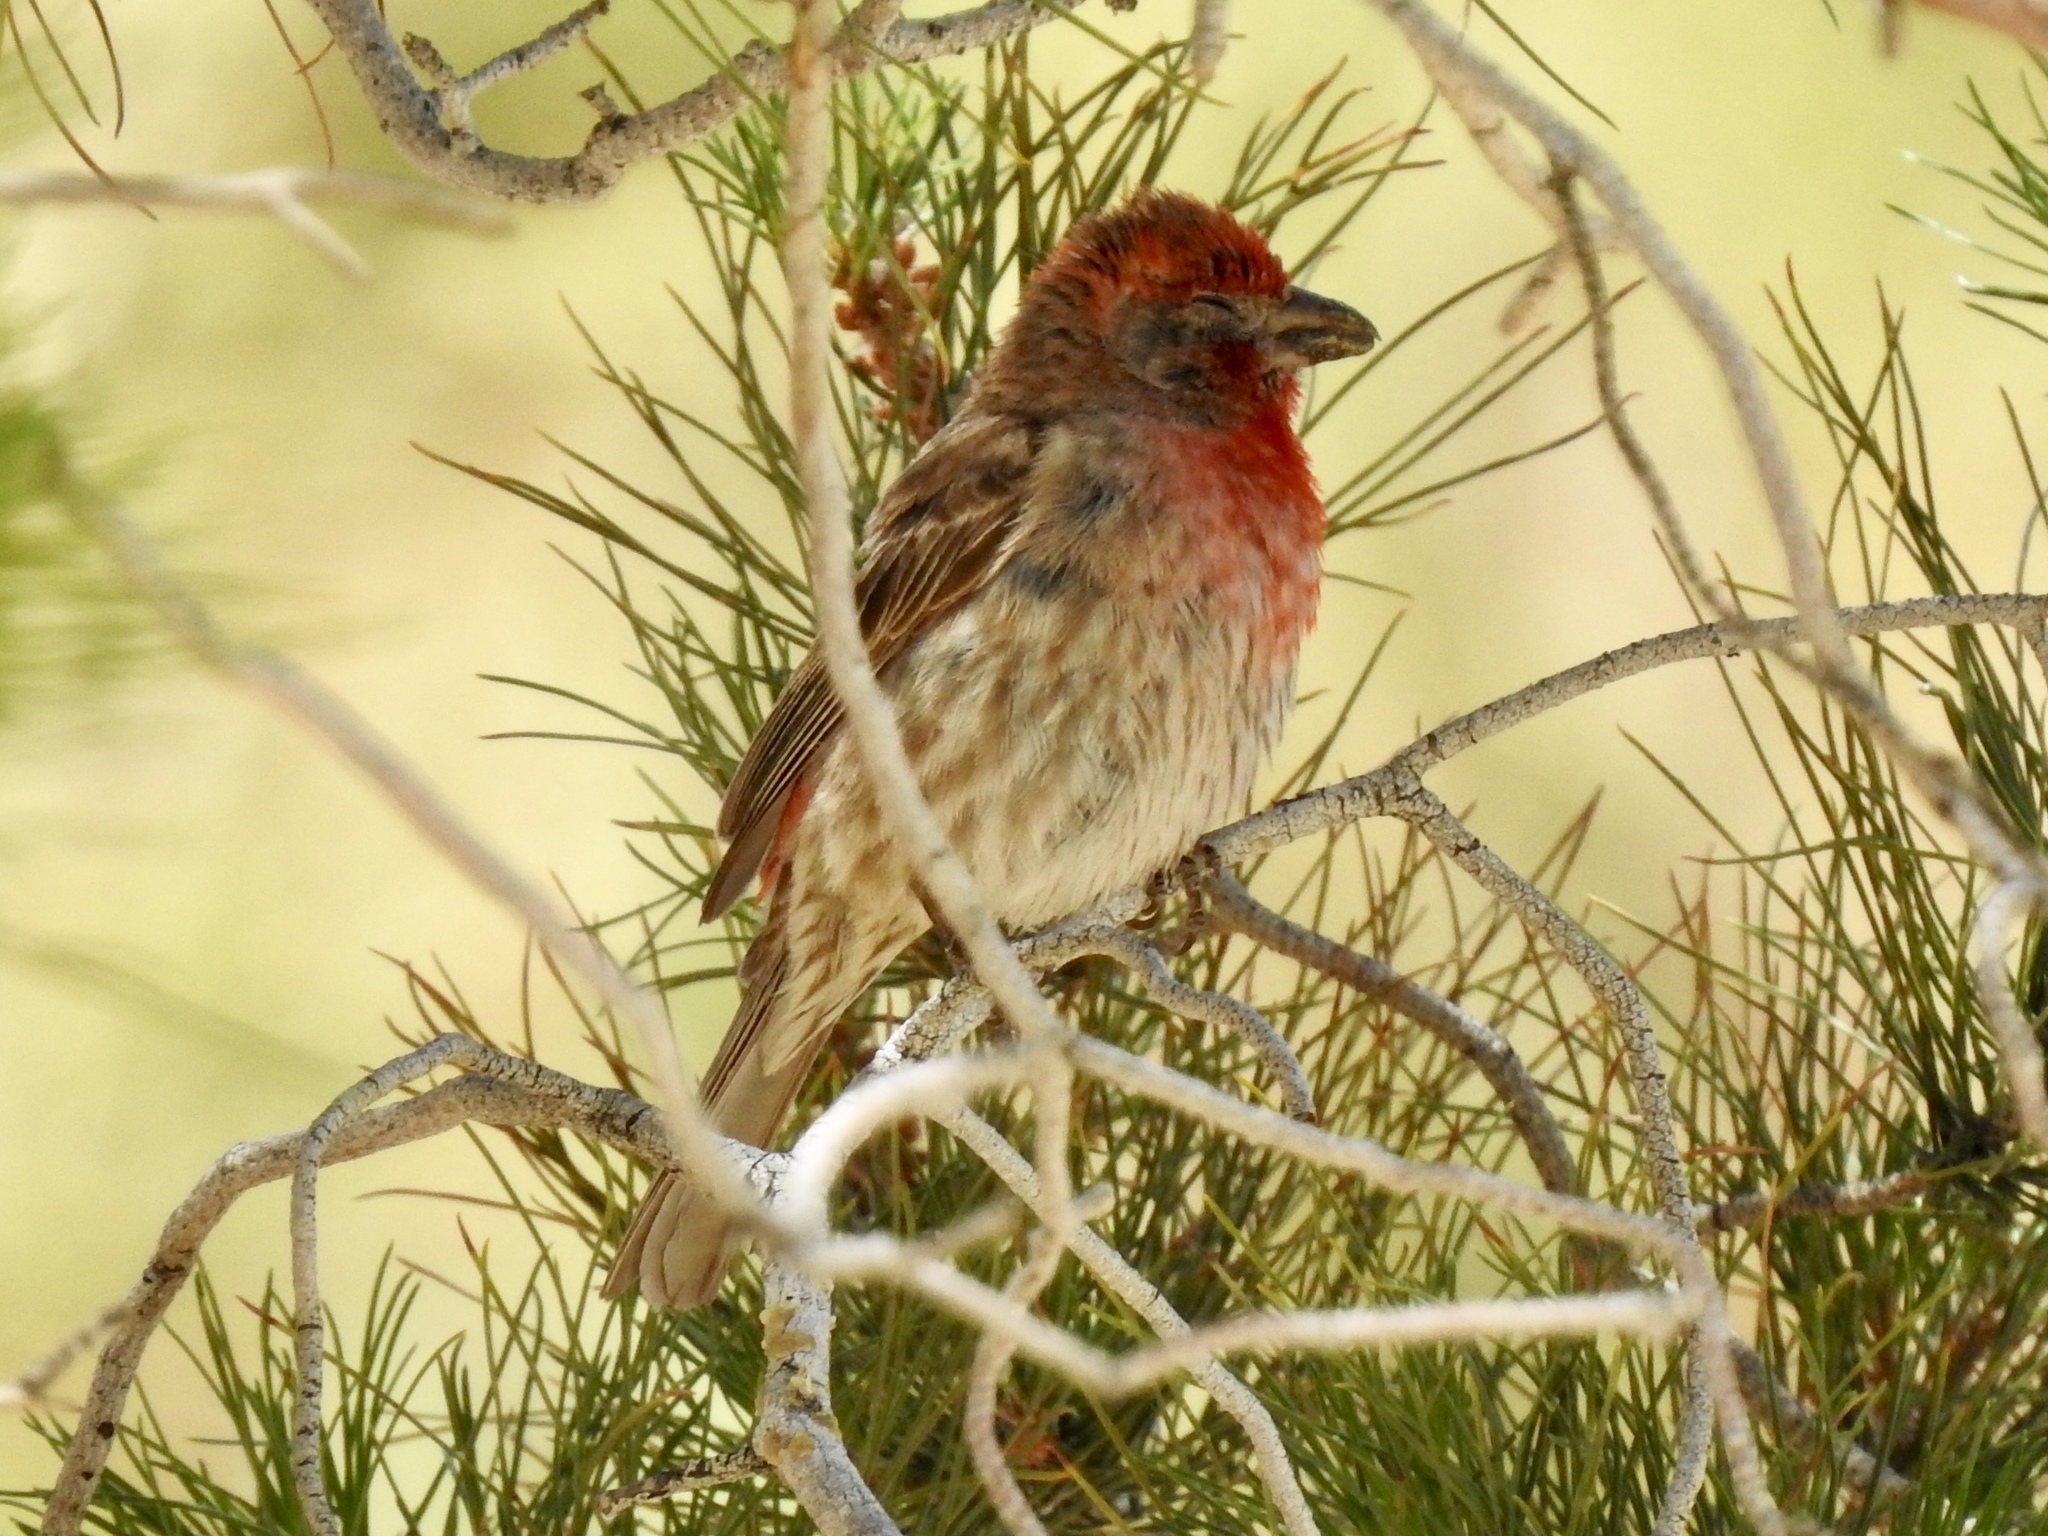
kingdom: Animalia
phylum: Chordata
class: Aves
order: Passeriformes
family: Fringillidae
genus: Haemorhous
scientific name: Haemorhous mexicanus
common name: House finch
